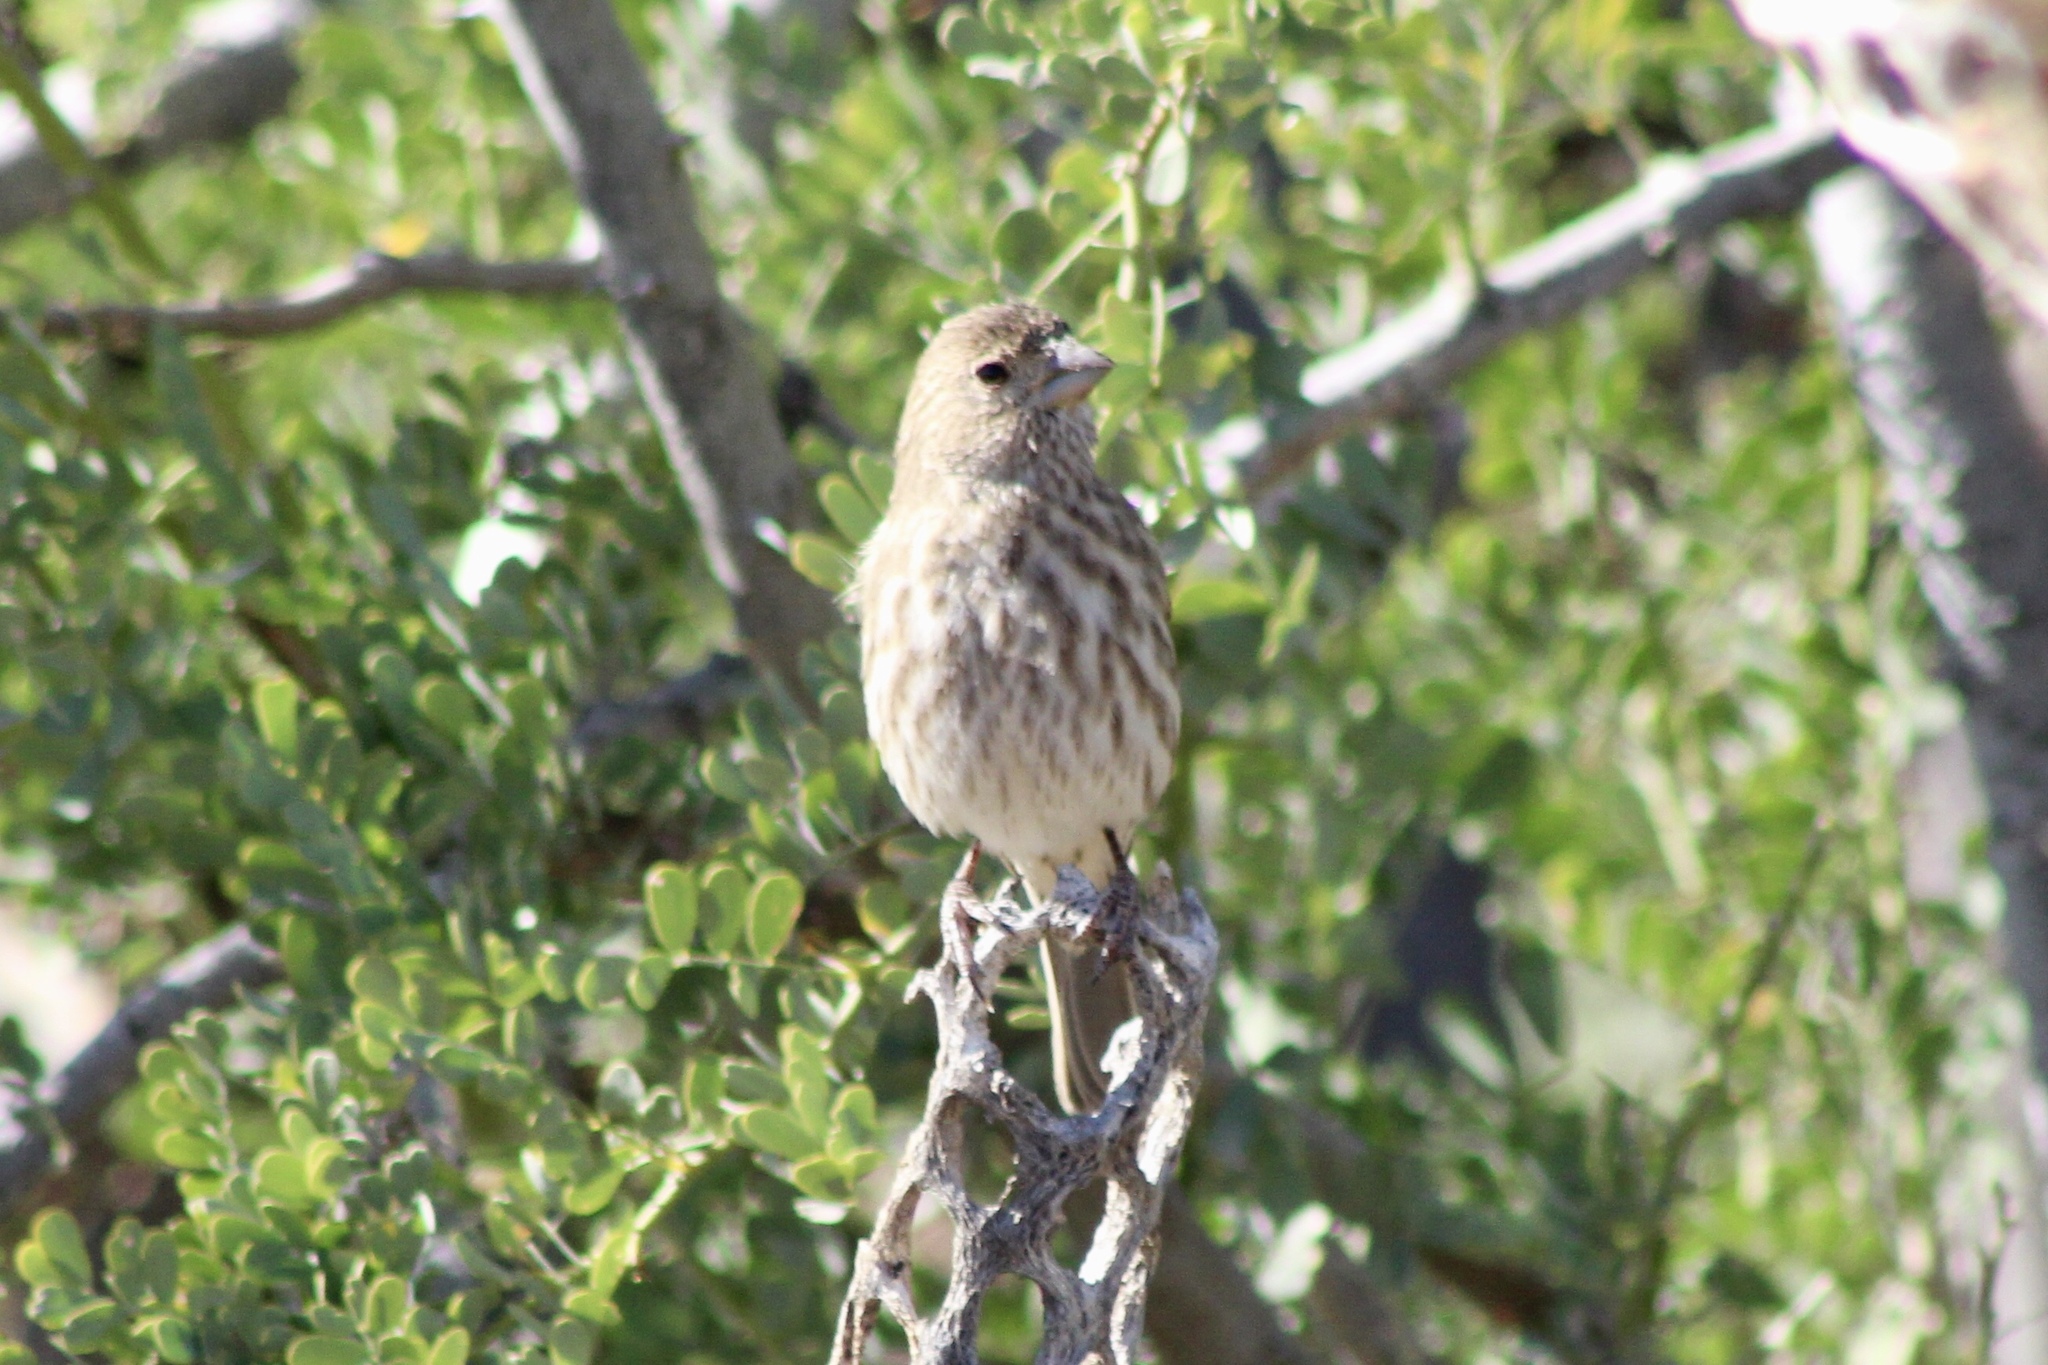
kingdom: Animalia
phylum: Chordata
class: Aves
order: Passeriformes
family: Fringillidae
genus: Haemorhous
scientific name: Haemorhous mexicanus
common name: House finch
